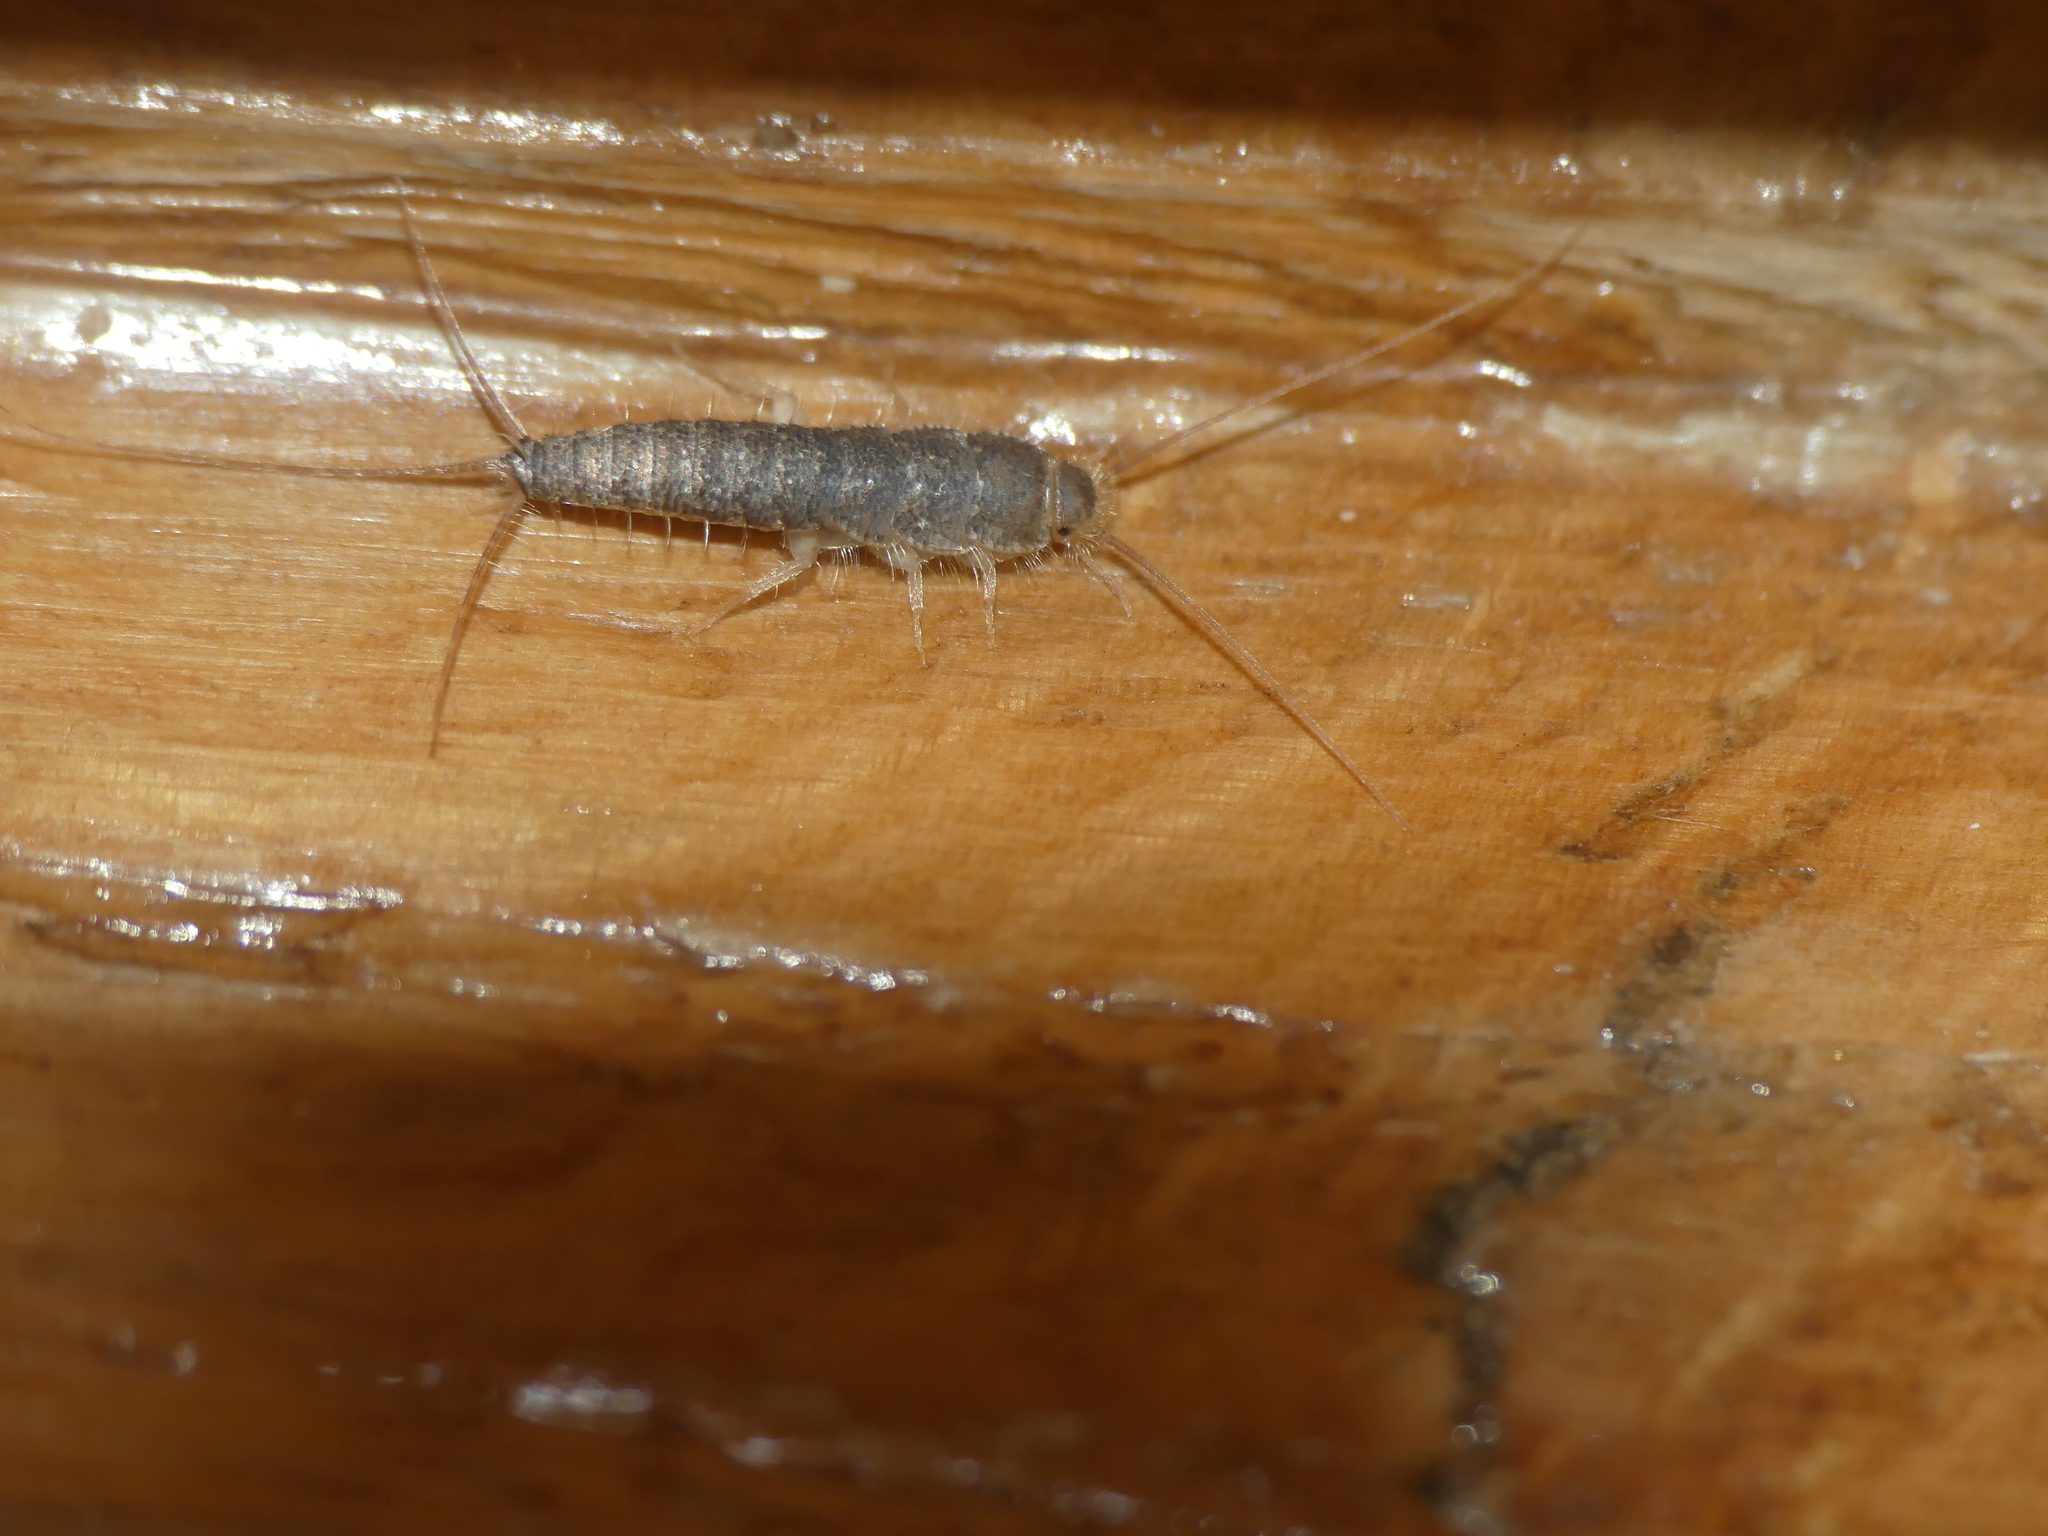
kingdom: Animalia
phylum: Arthropoda
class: Insecta
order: Zygentoma
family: Lepismatidae
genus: Ctenolepisma
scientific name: Ctenolepisma longicaudatum
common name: Silverfish
